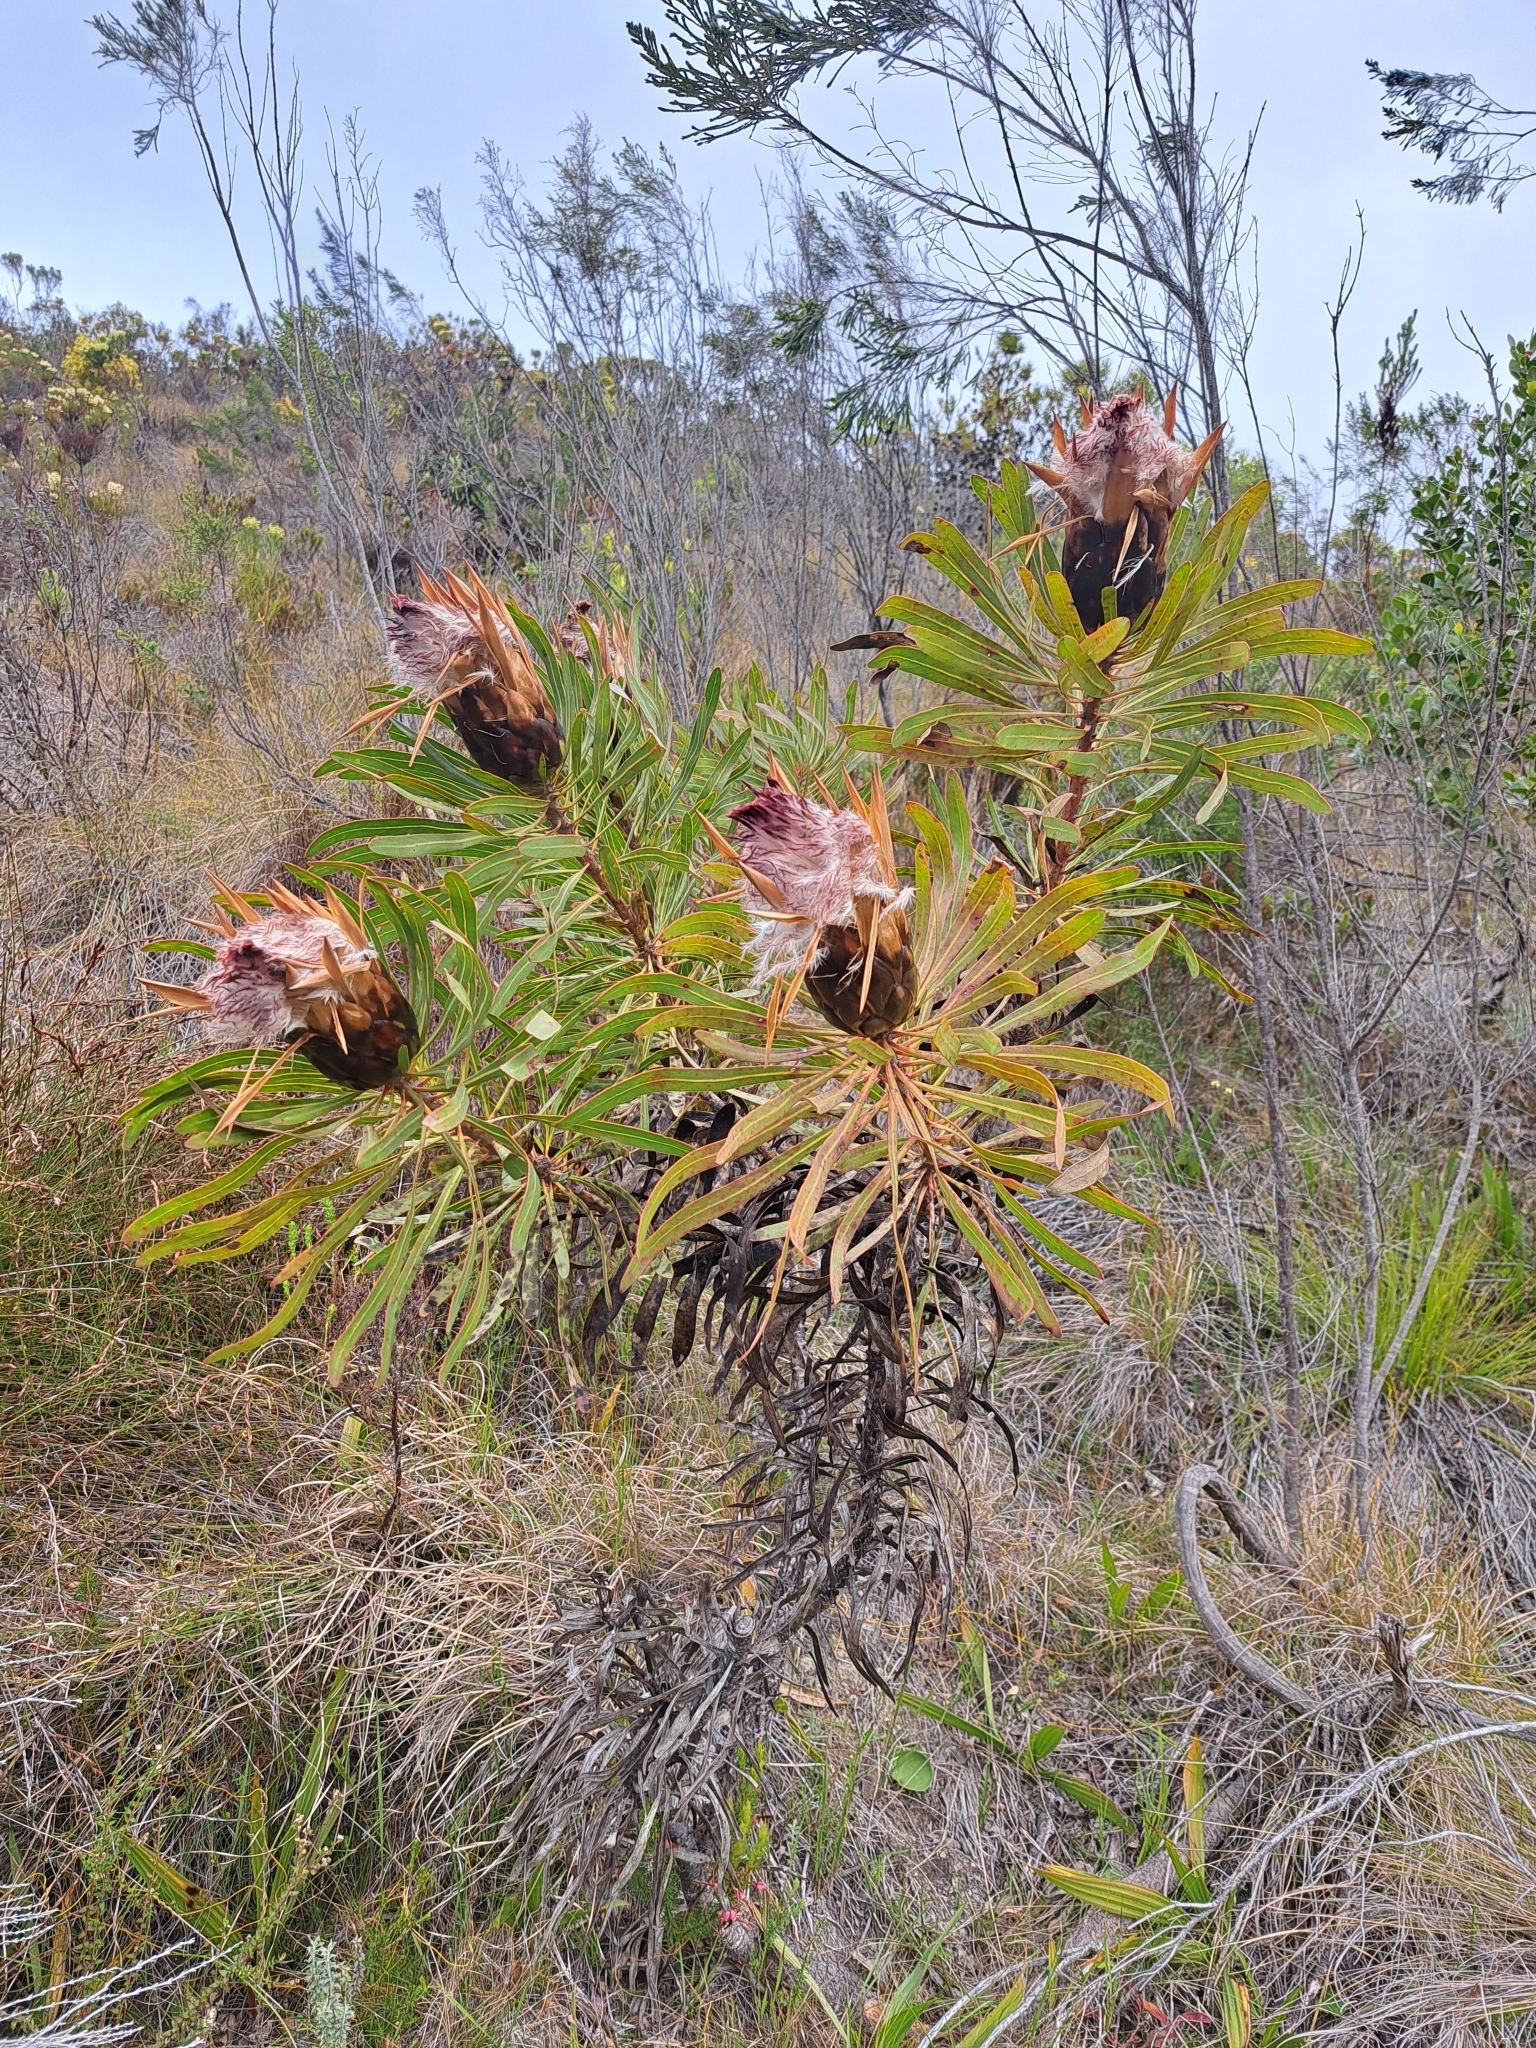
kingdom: Plantae
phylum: Tracheophyta
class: Magnoliopsida
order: Proteales
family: Proteaceae
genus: Protea
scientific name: Protea longifolia
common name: Long-leaf sugarbush
